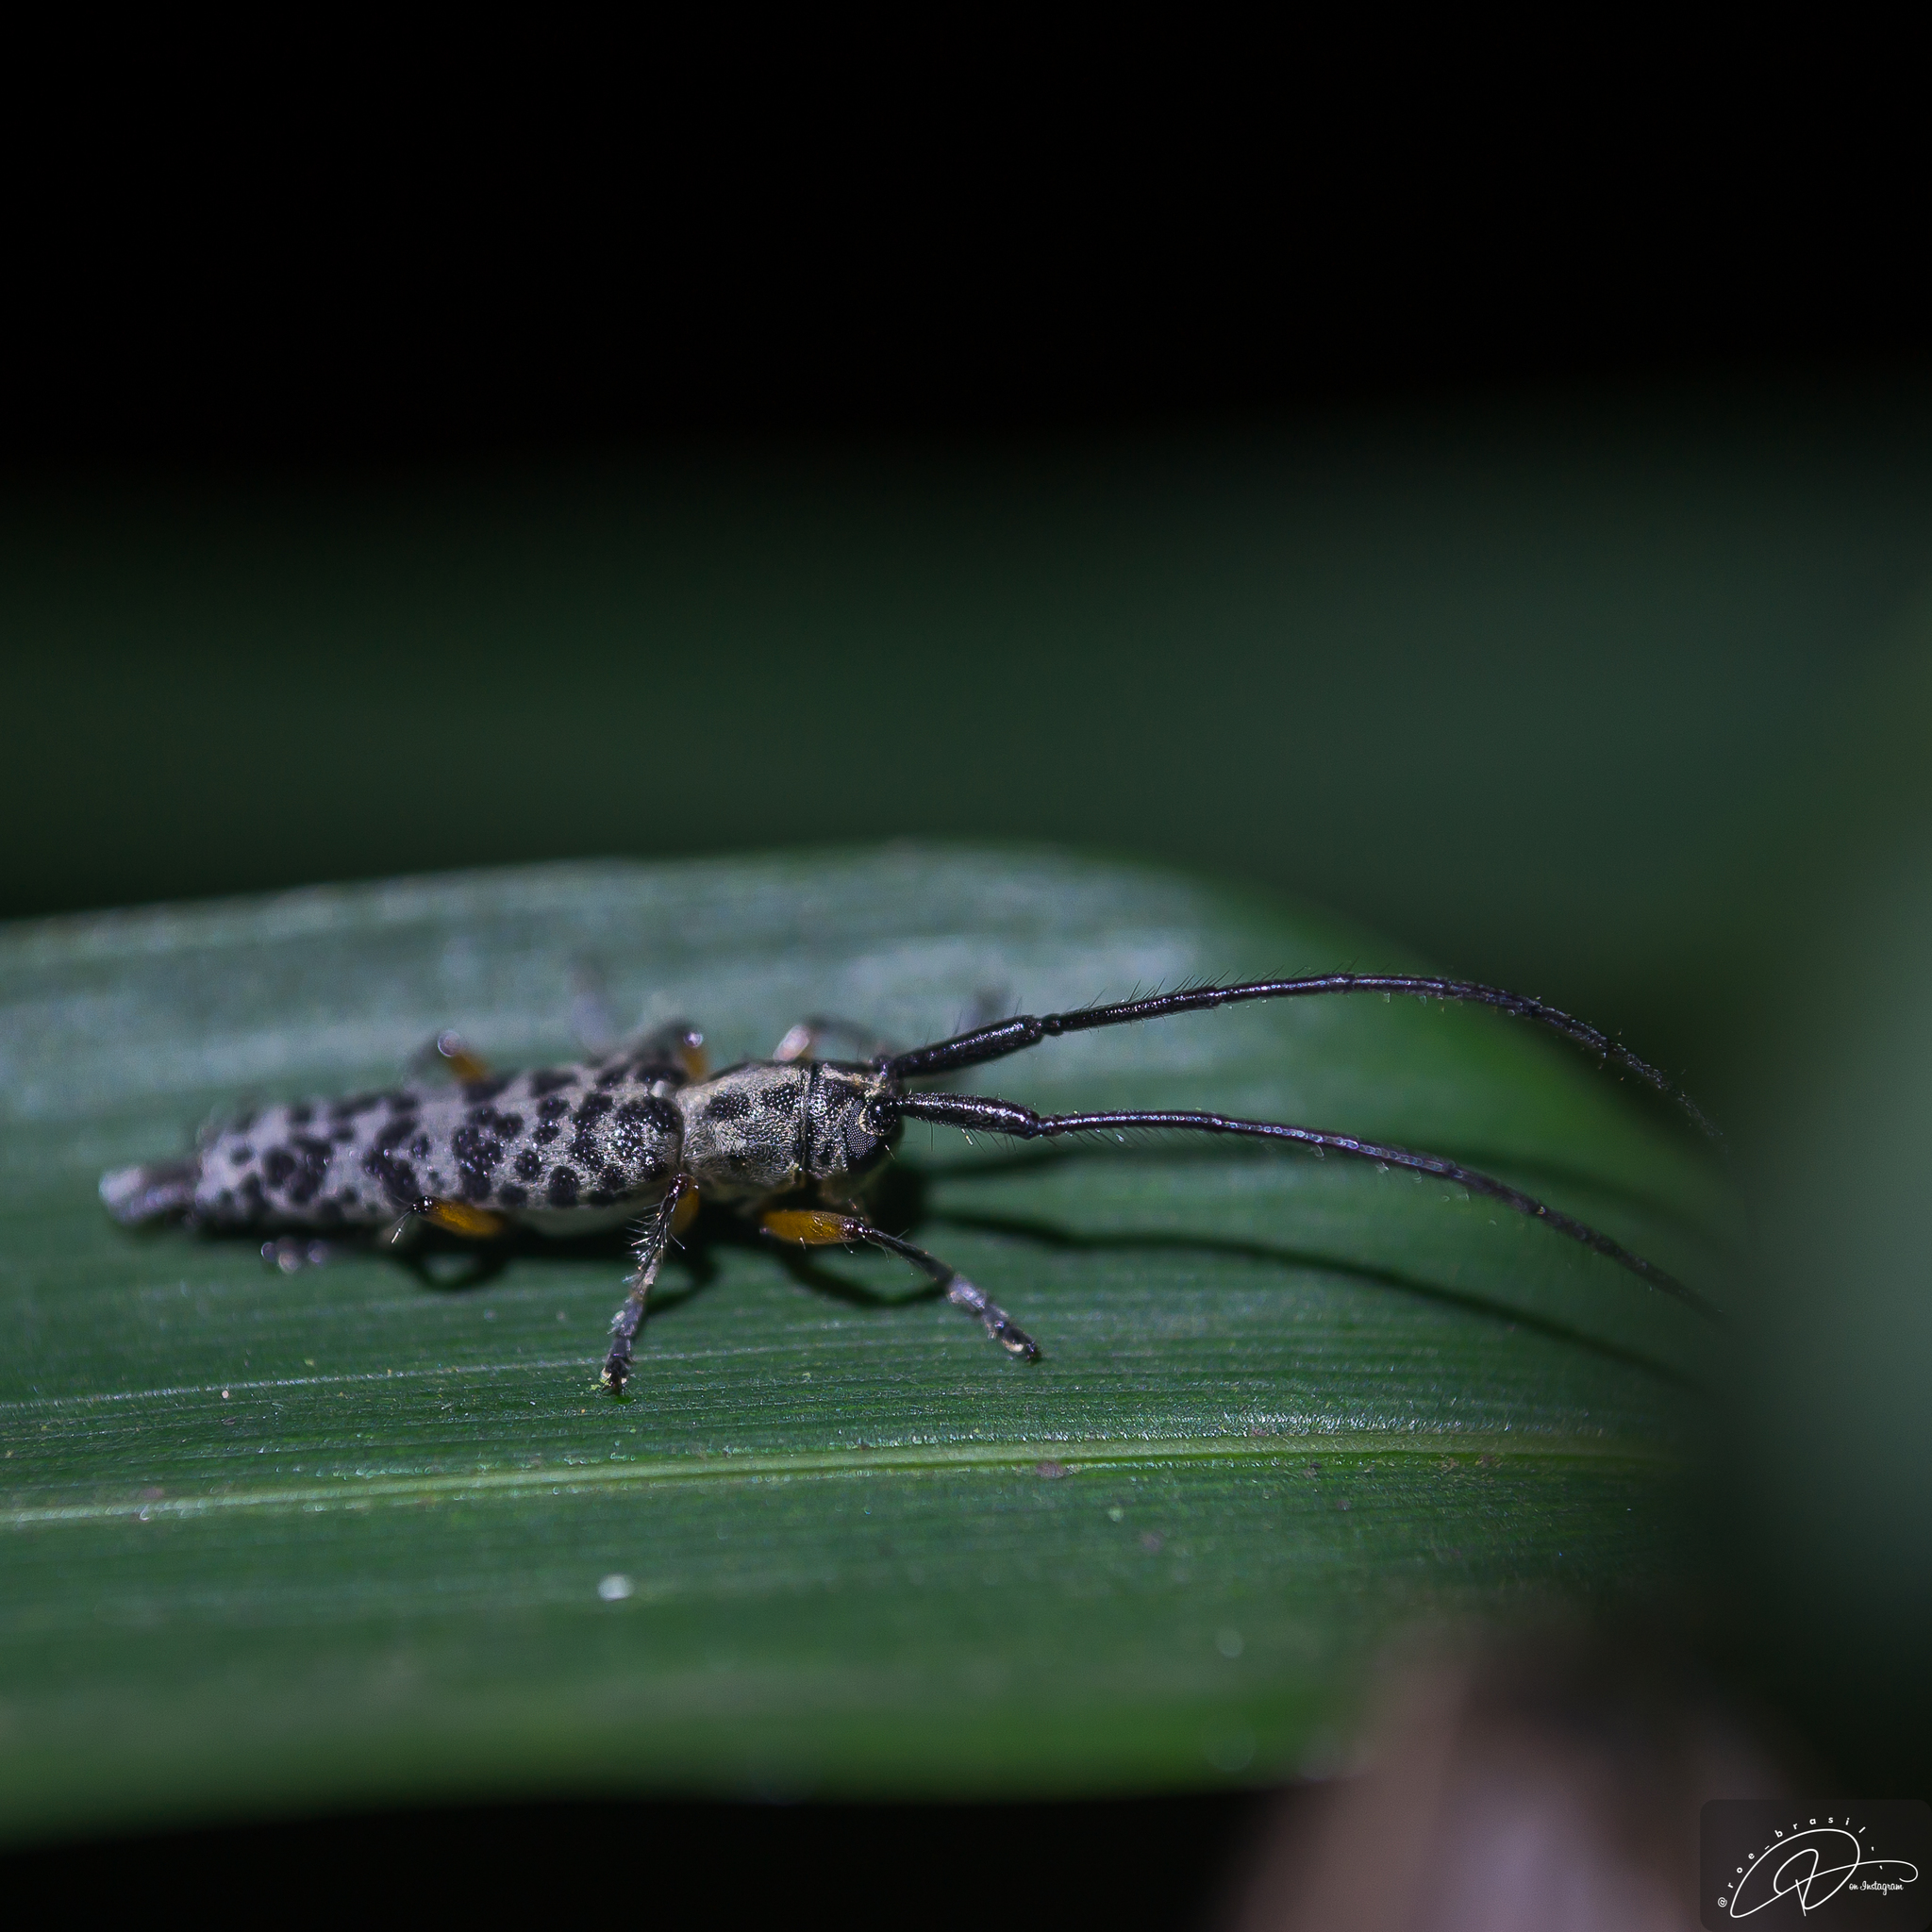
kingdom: Animalia
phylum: Arthropoda
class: Insecta
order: Coleoptera
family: Cerambycidae
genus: Malthonea
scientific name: Malthonea tigrinata
